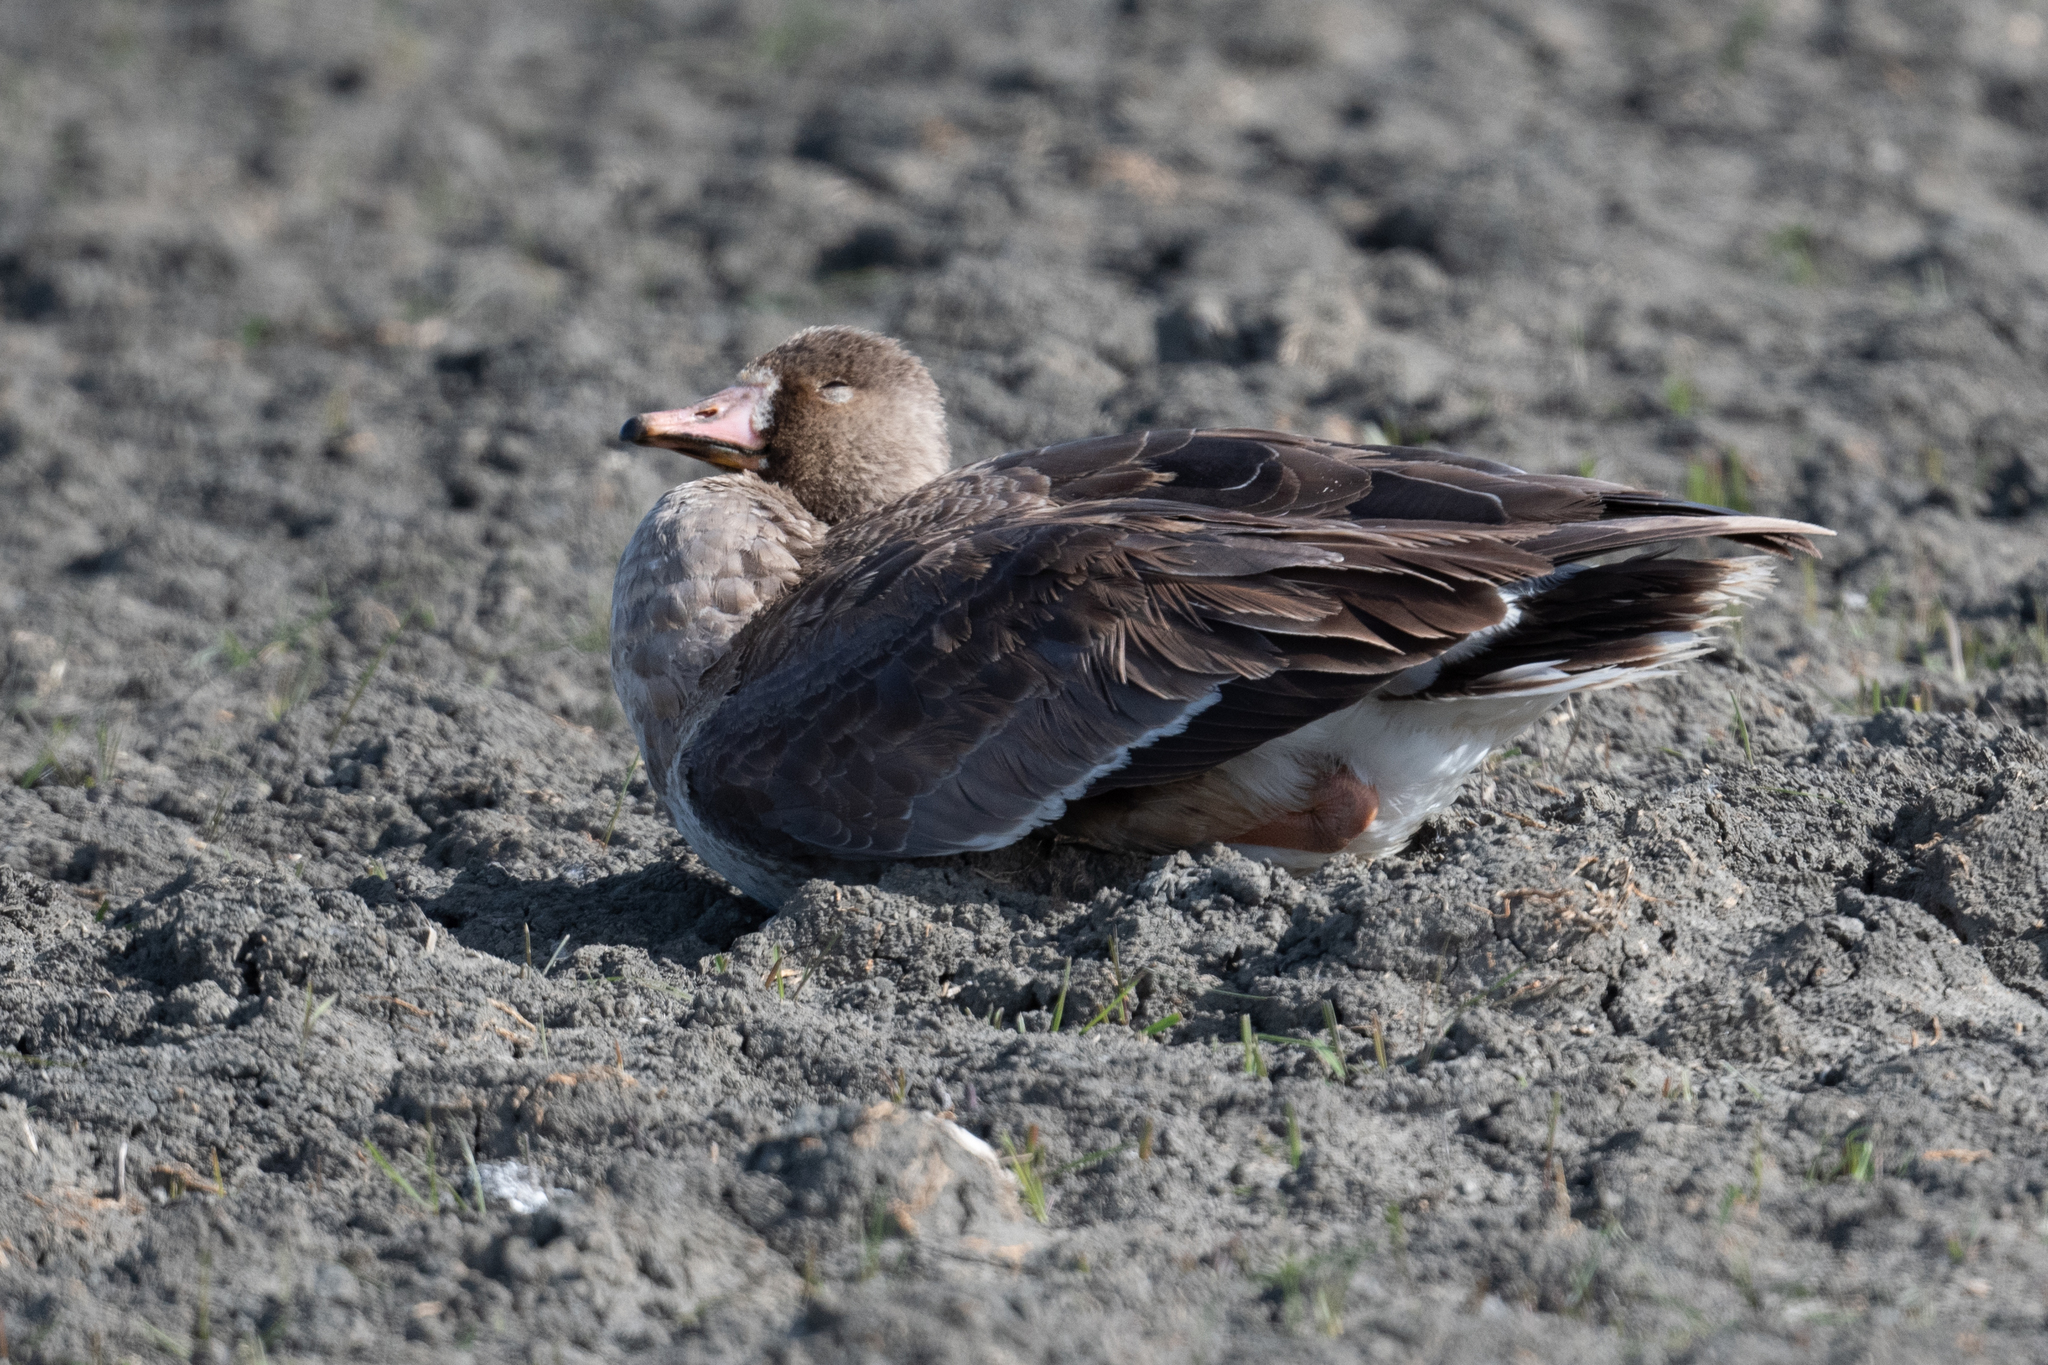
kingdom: Animalia
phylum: Chordata
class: Aves
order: Anseriformes
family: Anatidae
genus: Anser
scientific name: Anser albifrons
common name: Greater white-fronted goose
